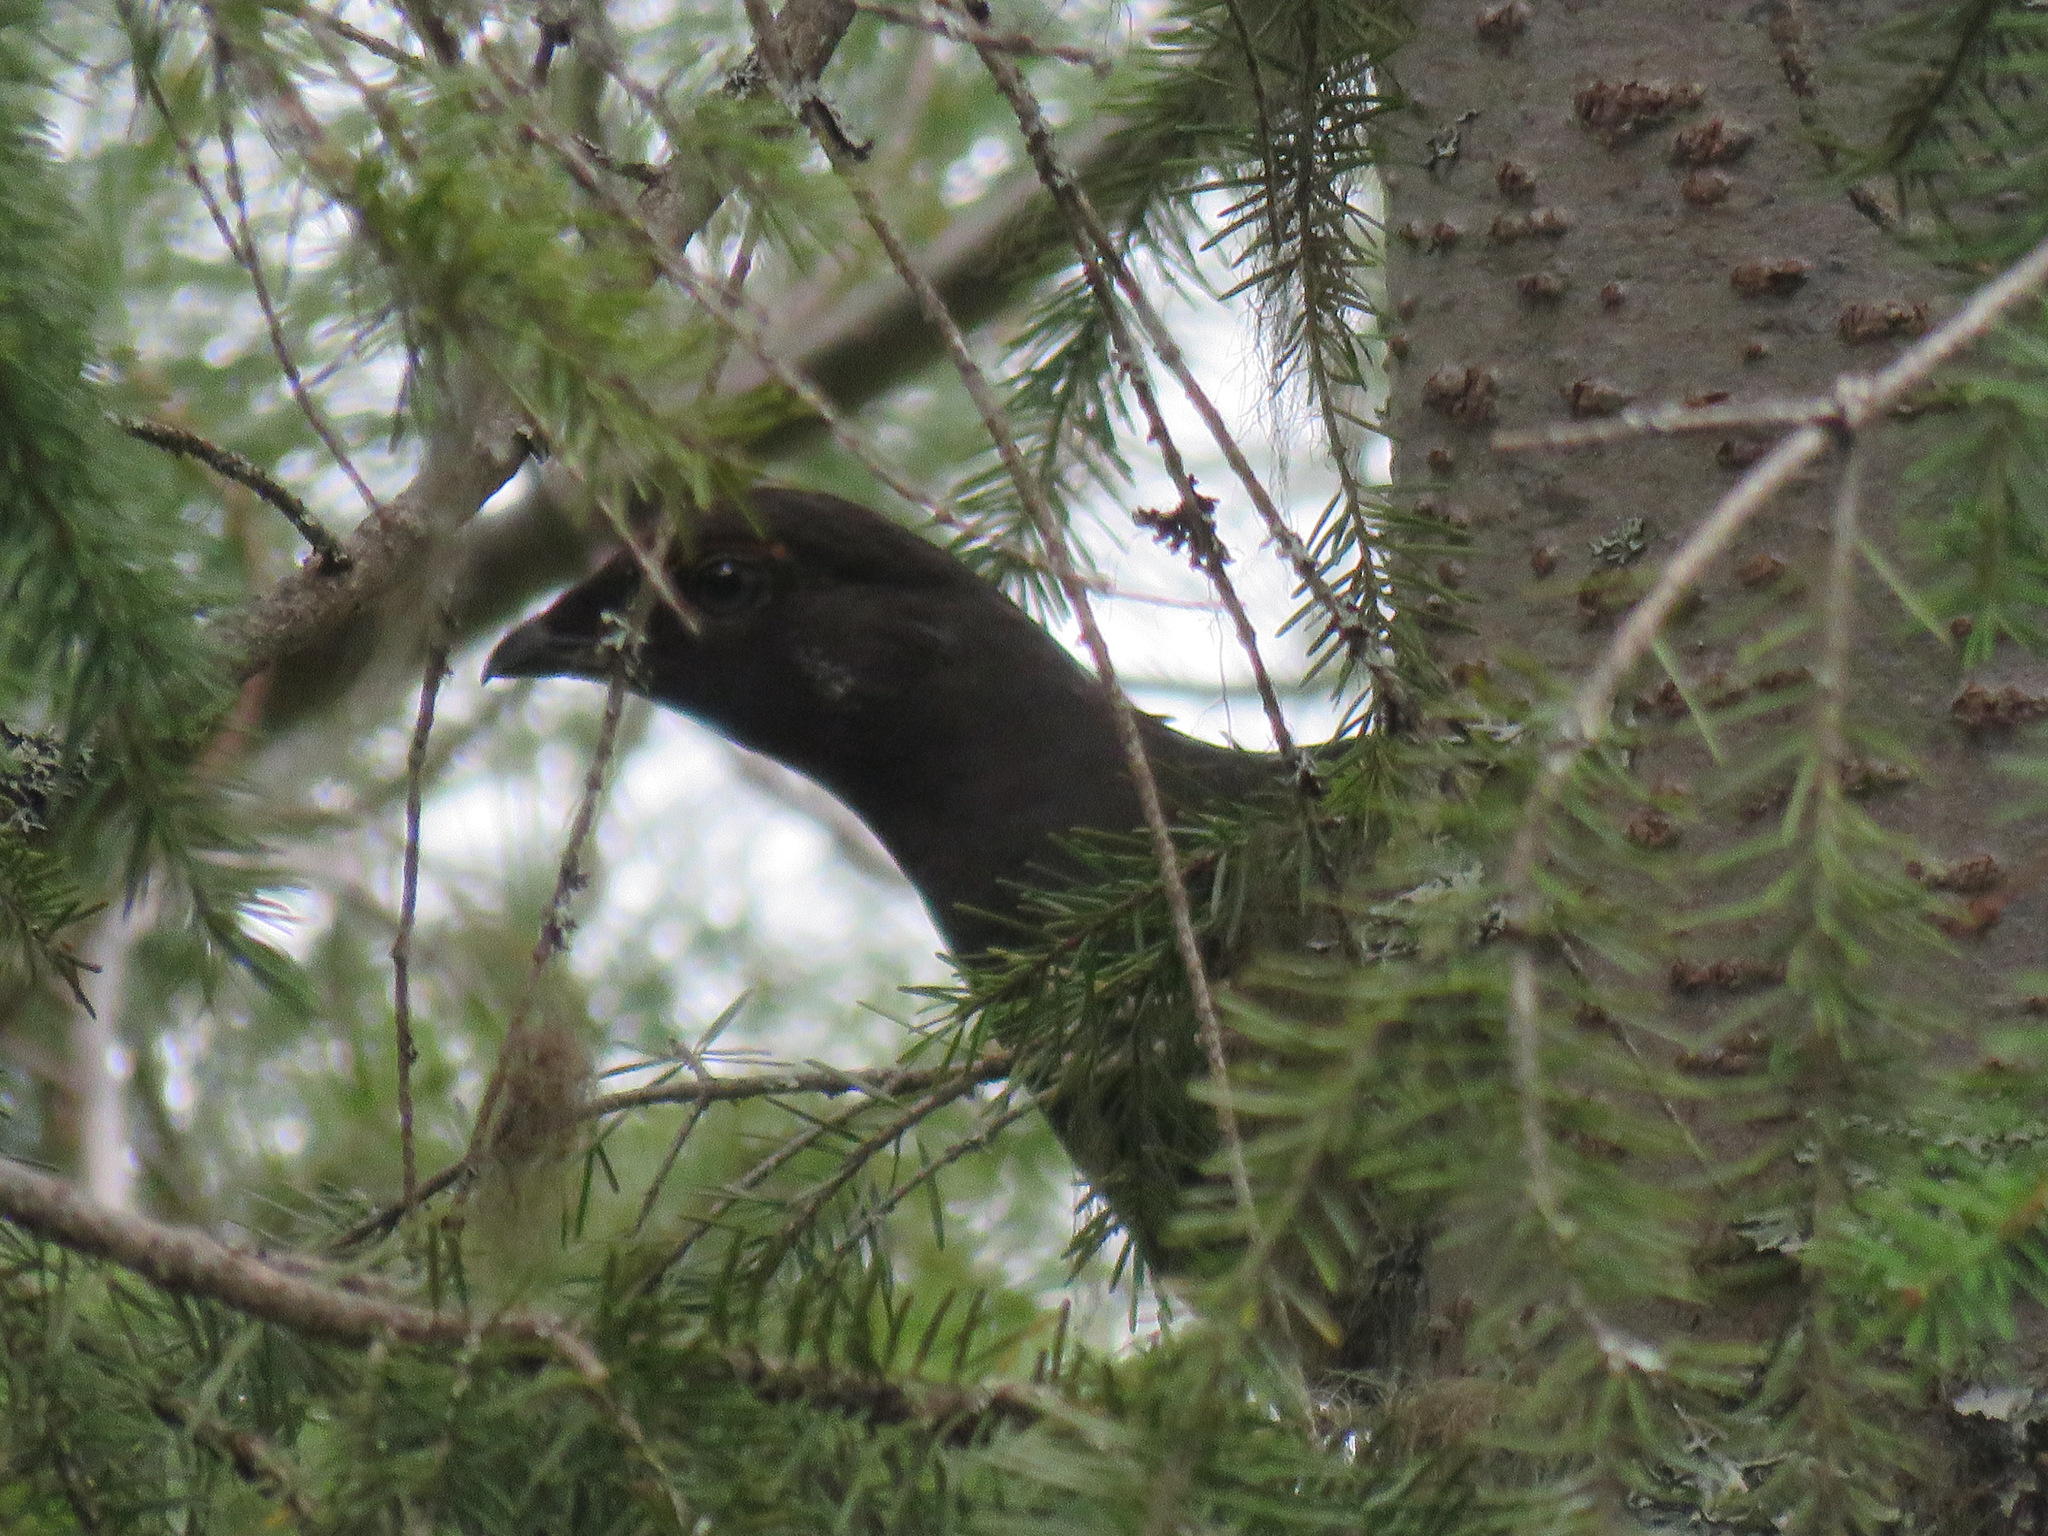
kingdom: Animalia
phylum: Chordata
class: Aves
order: Galliformes
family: Phasianidae
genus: Dendragapus
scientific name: Dendragapus fuliginosus
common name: Sooty grouse
